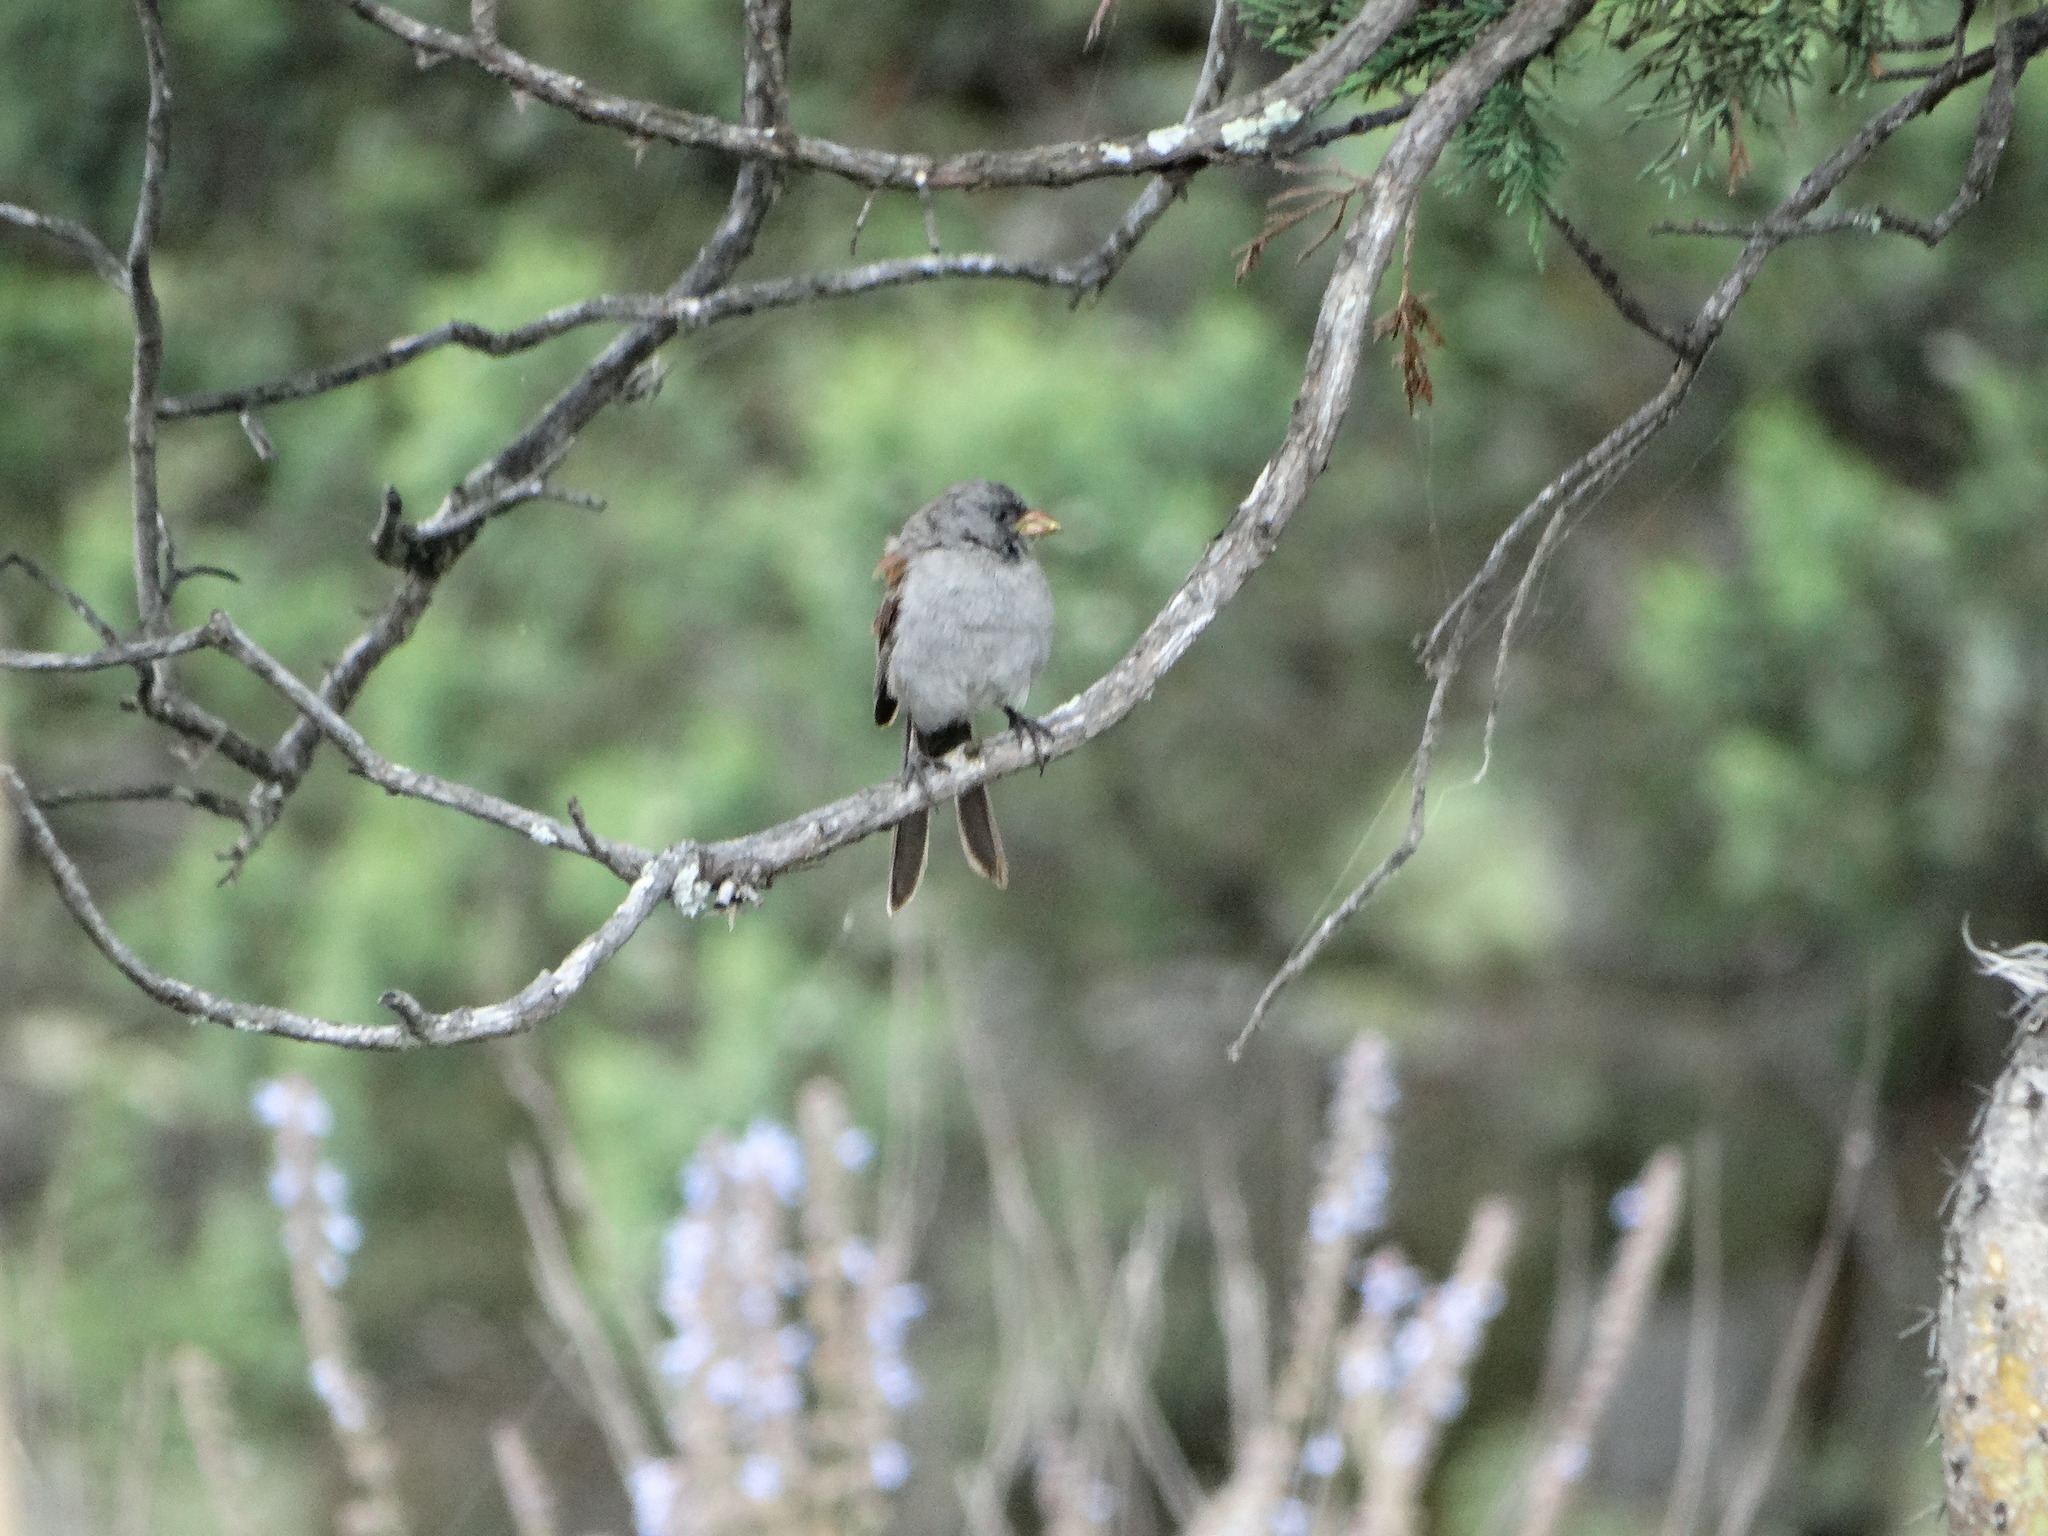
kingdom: Animalia
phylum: Chordata
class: Aves
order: Passeriformes
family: Passerellidae
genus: Spizella
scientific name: Spizella atrogularis
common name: Black-chinned sparrow
